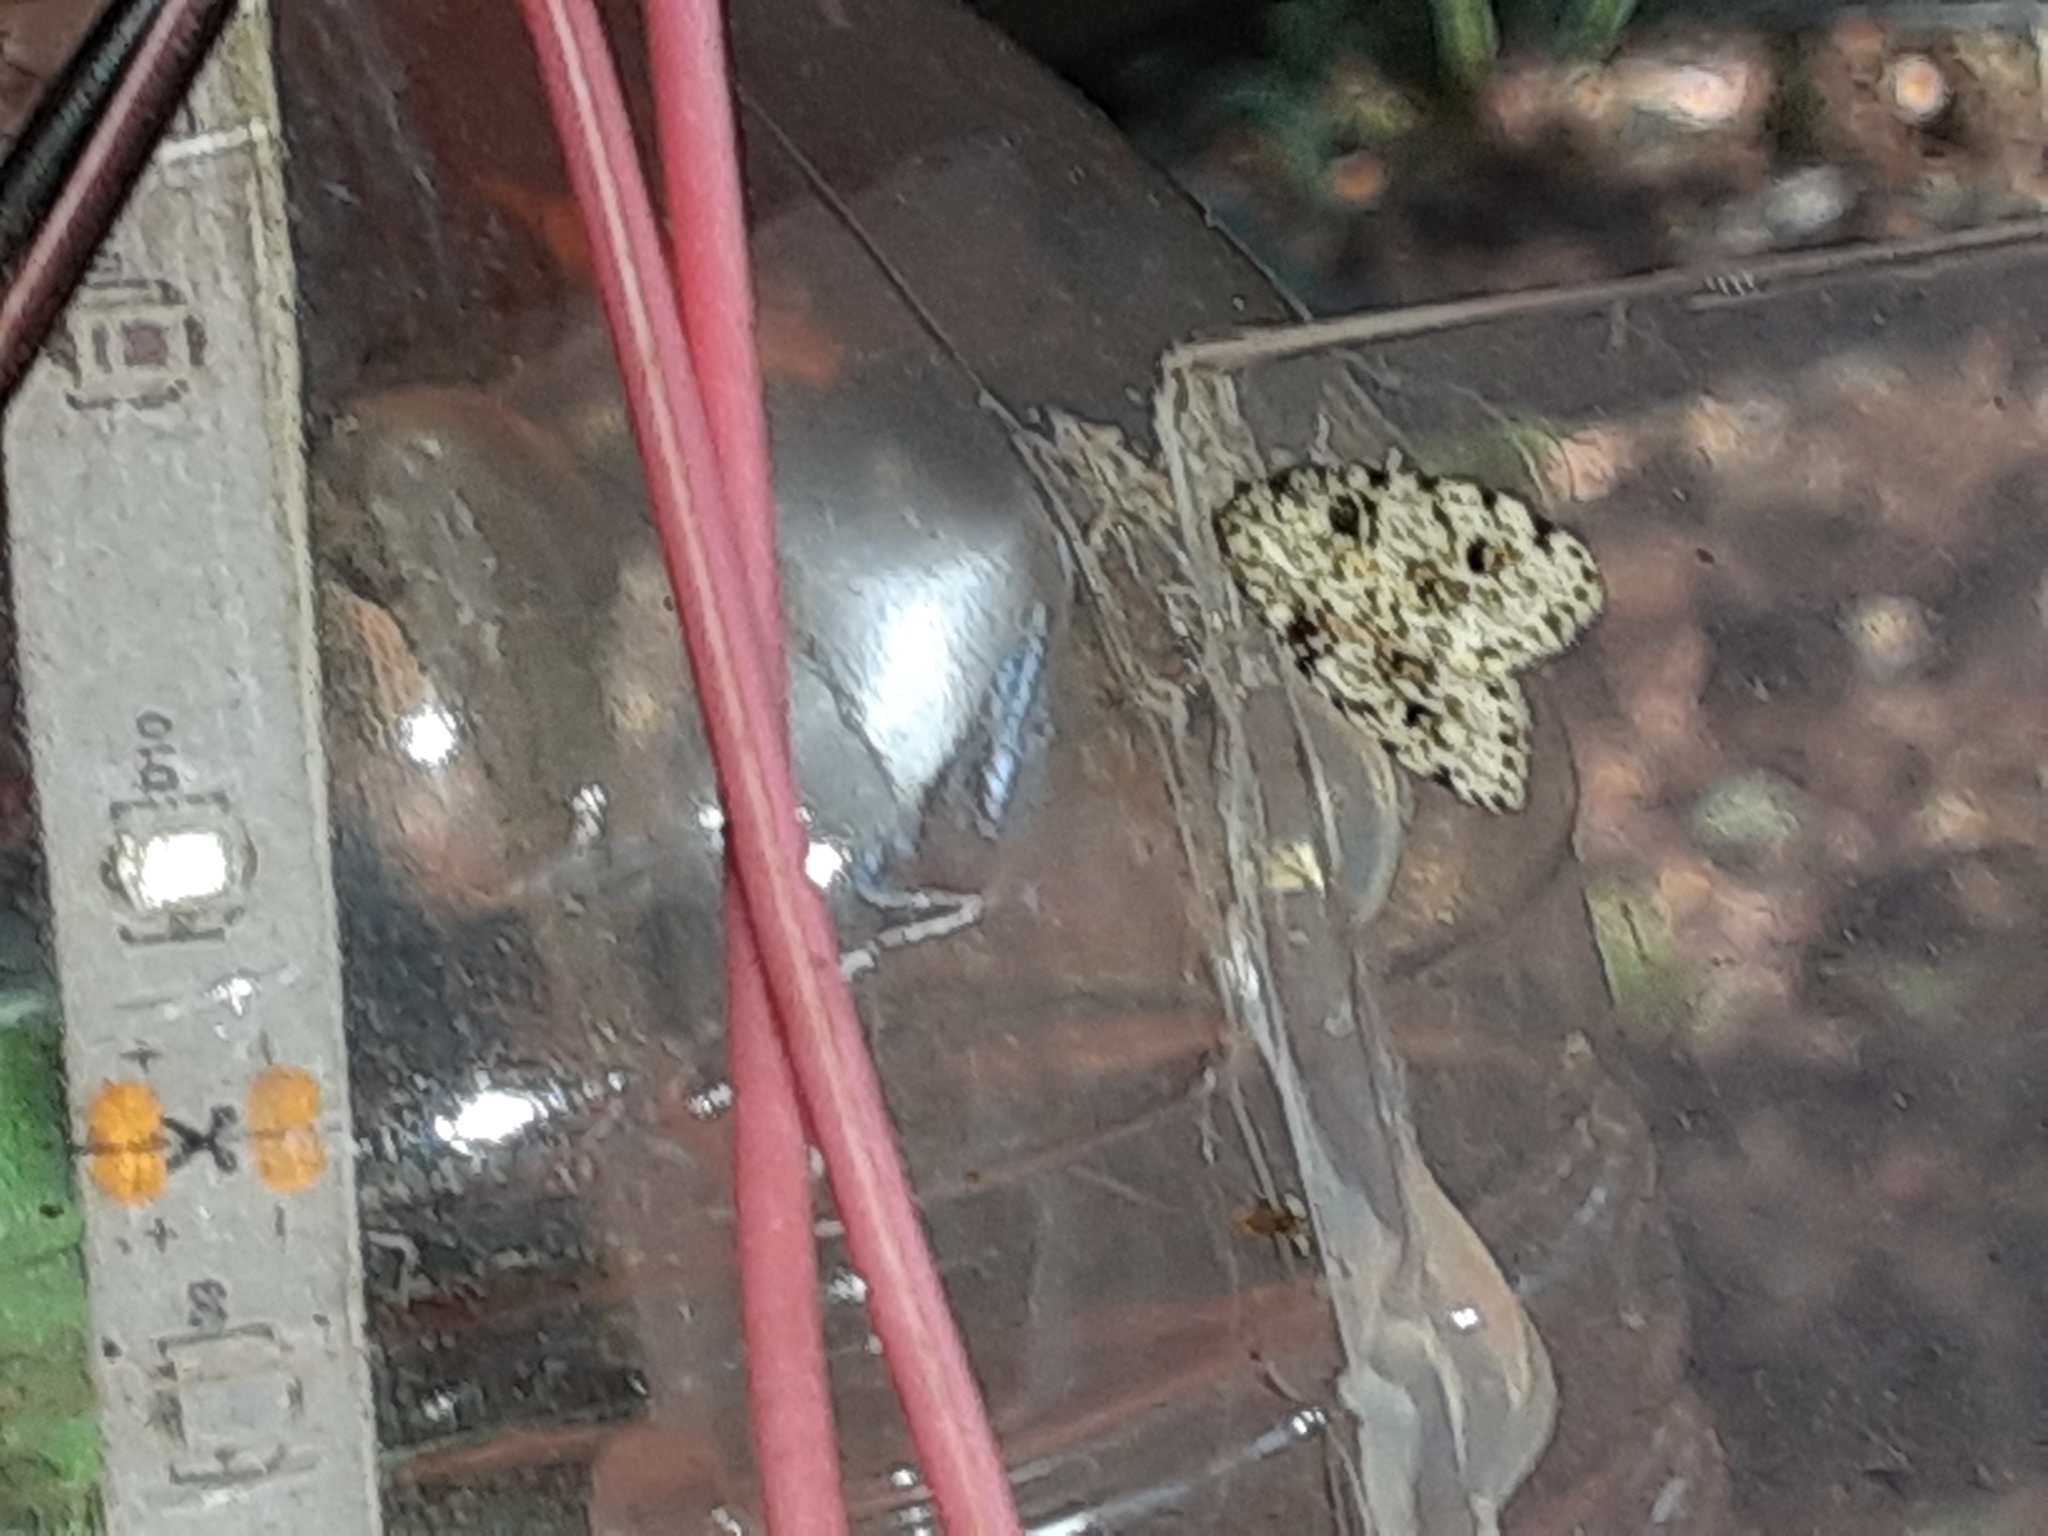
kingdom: Animalia
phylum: Arthropoda
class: Insecta
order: Lepidoptera
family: Erebidae
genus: Clemensia
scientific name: Clemensia ochreata
